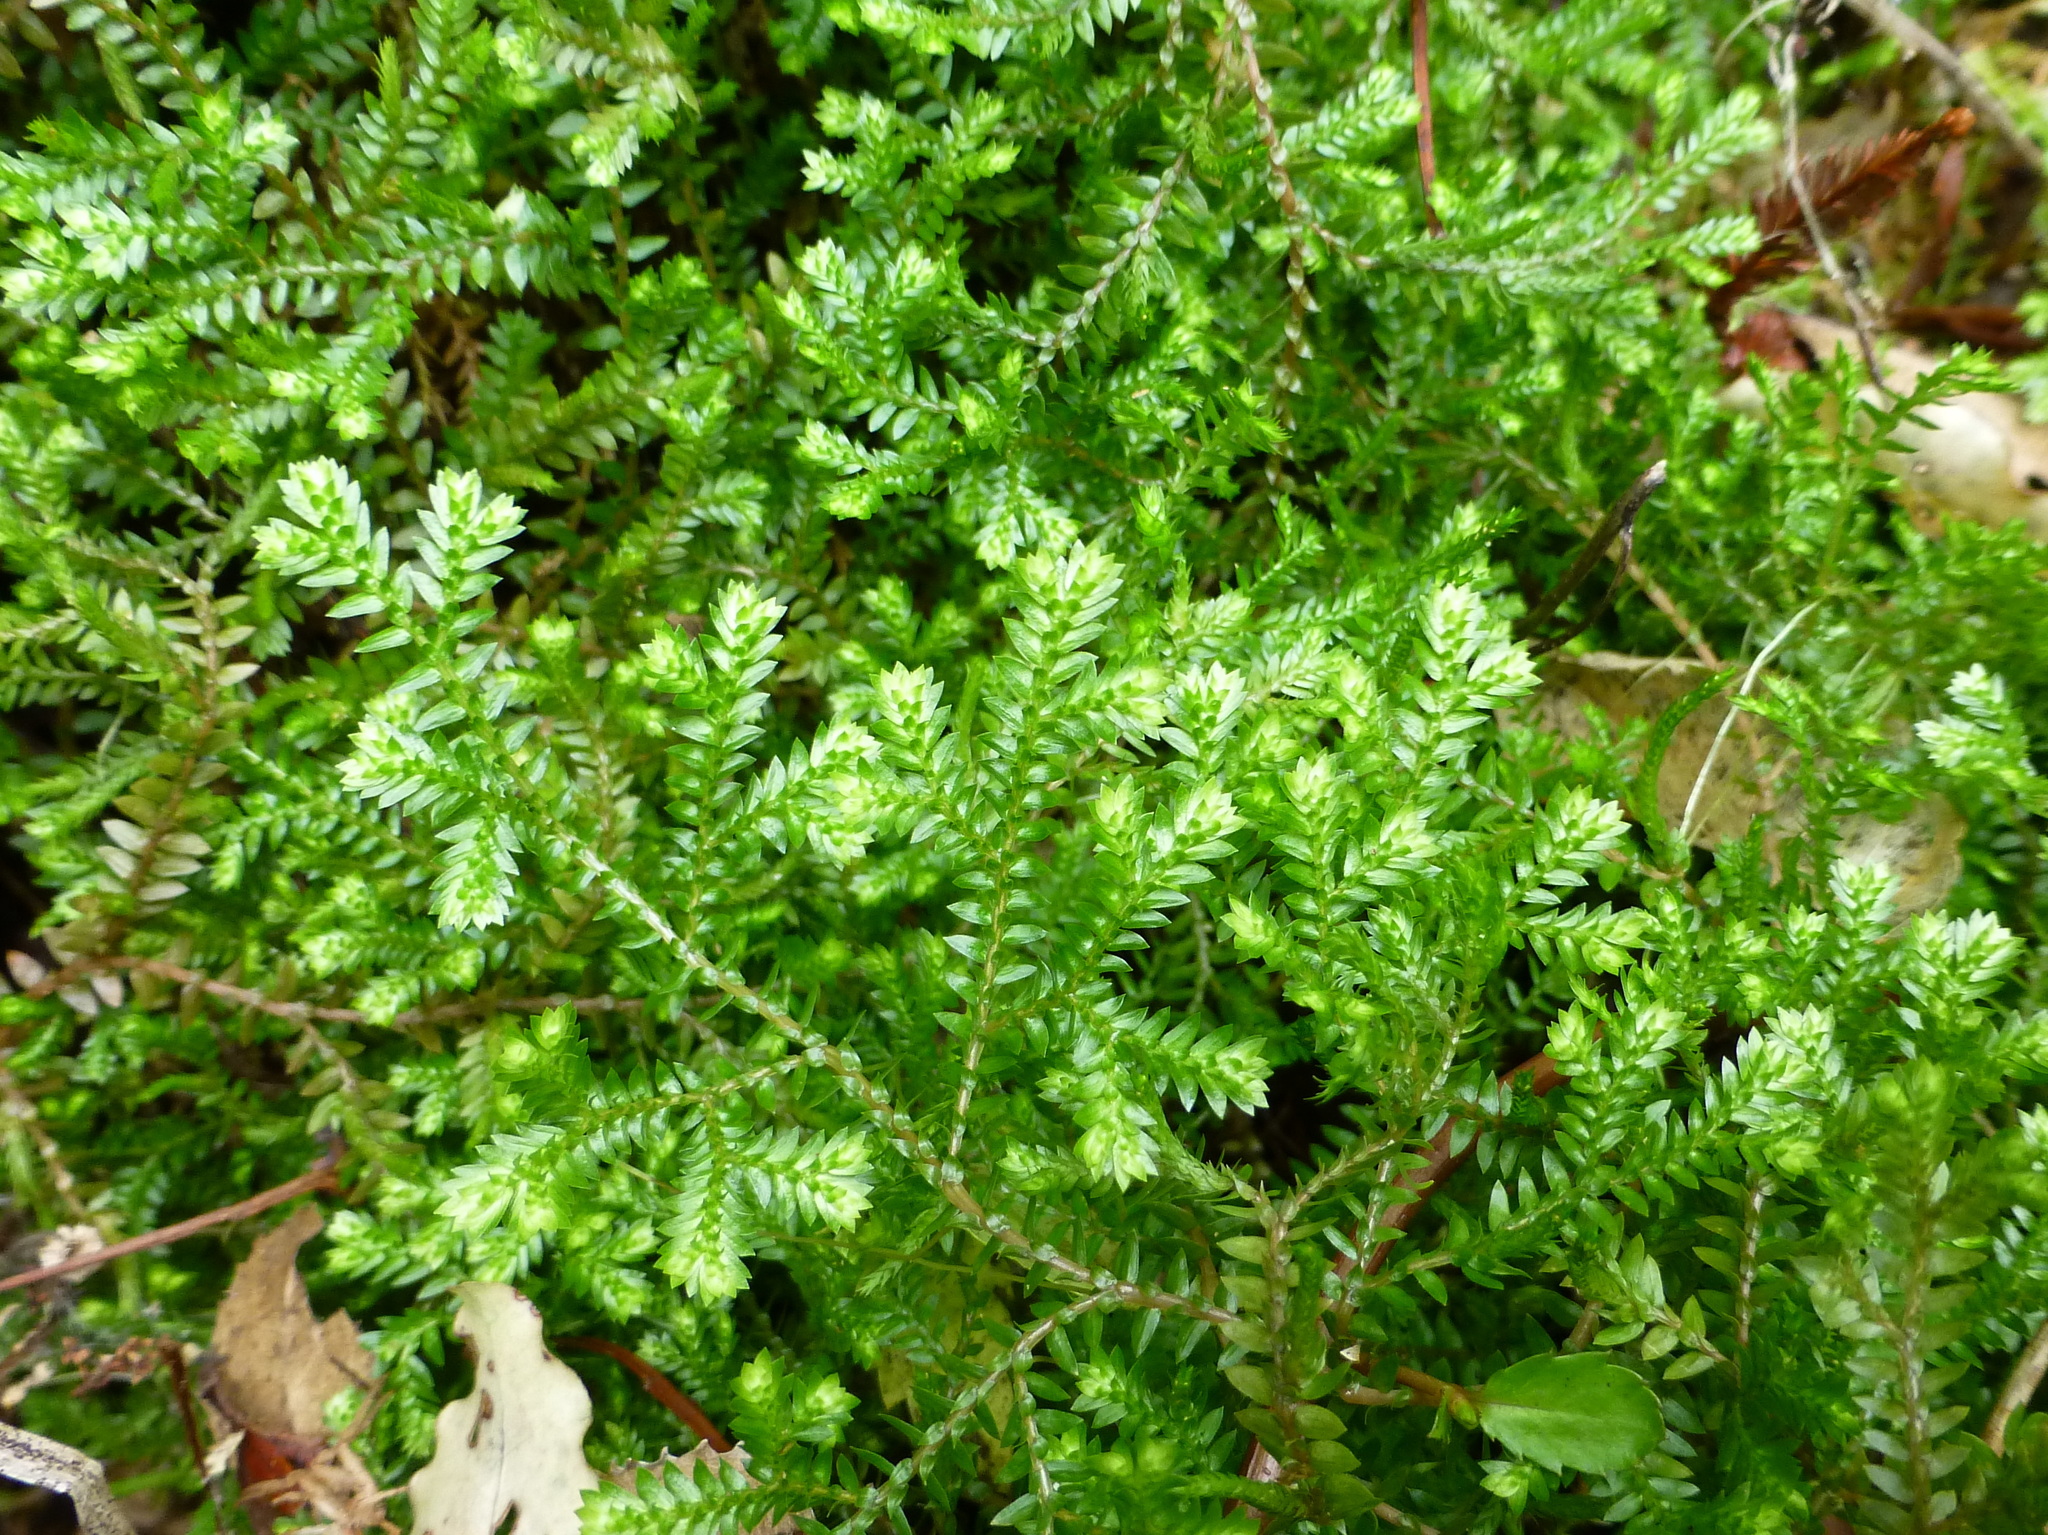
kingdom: Plantae
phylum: Tracheophyta
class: Lycopodiopsida
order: Selaginellales
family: Selaginellaceae
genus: Selaginella
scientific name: Selaginella kraussiana
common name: Krauss' spikemoss
